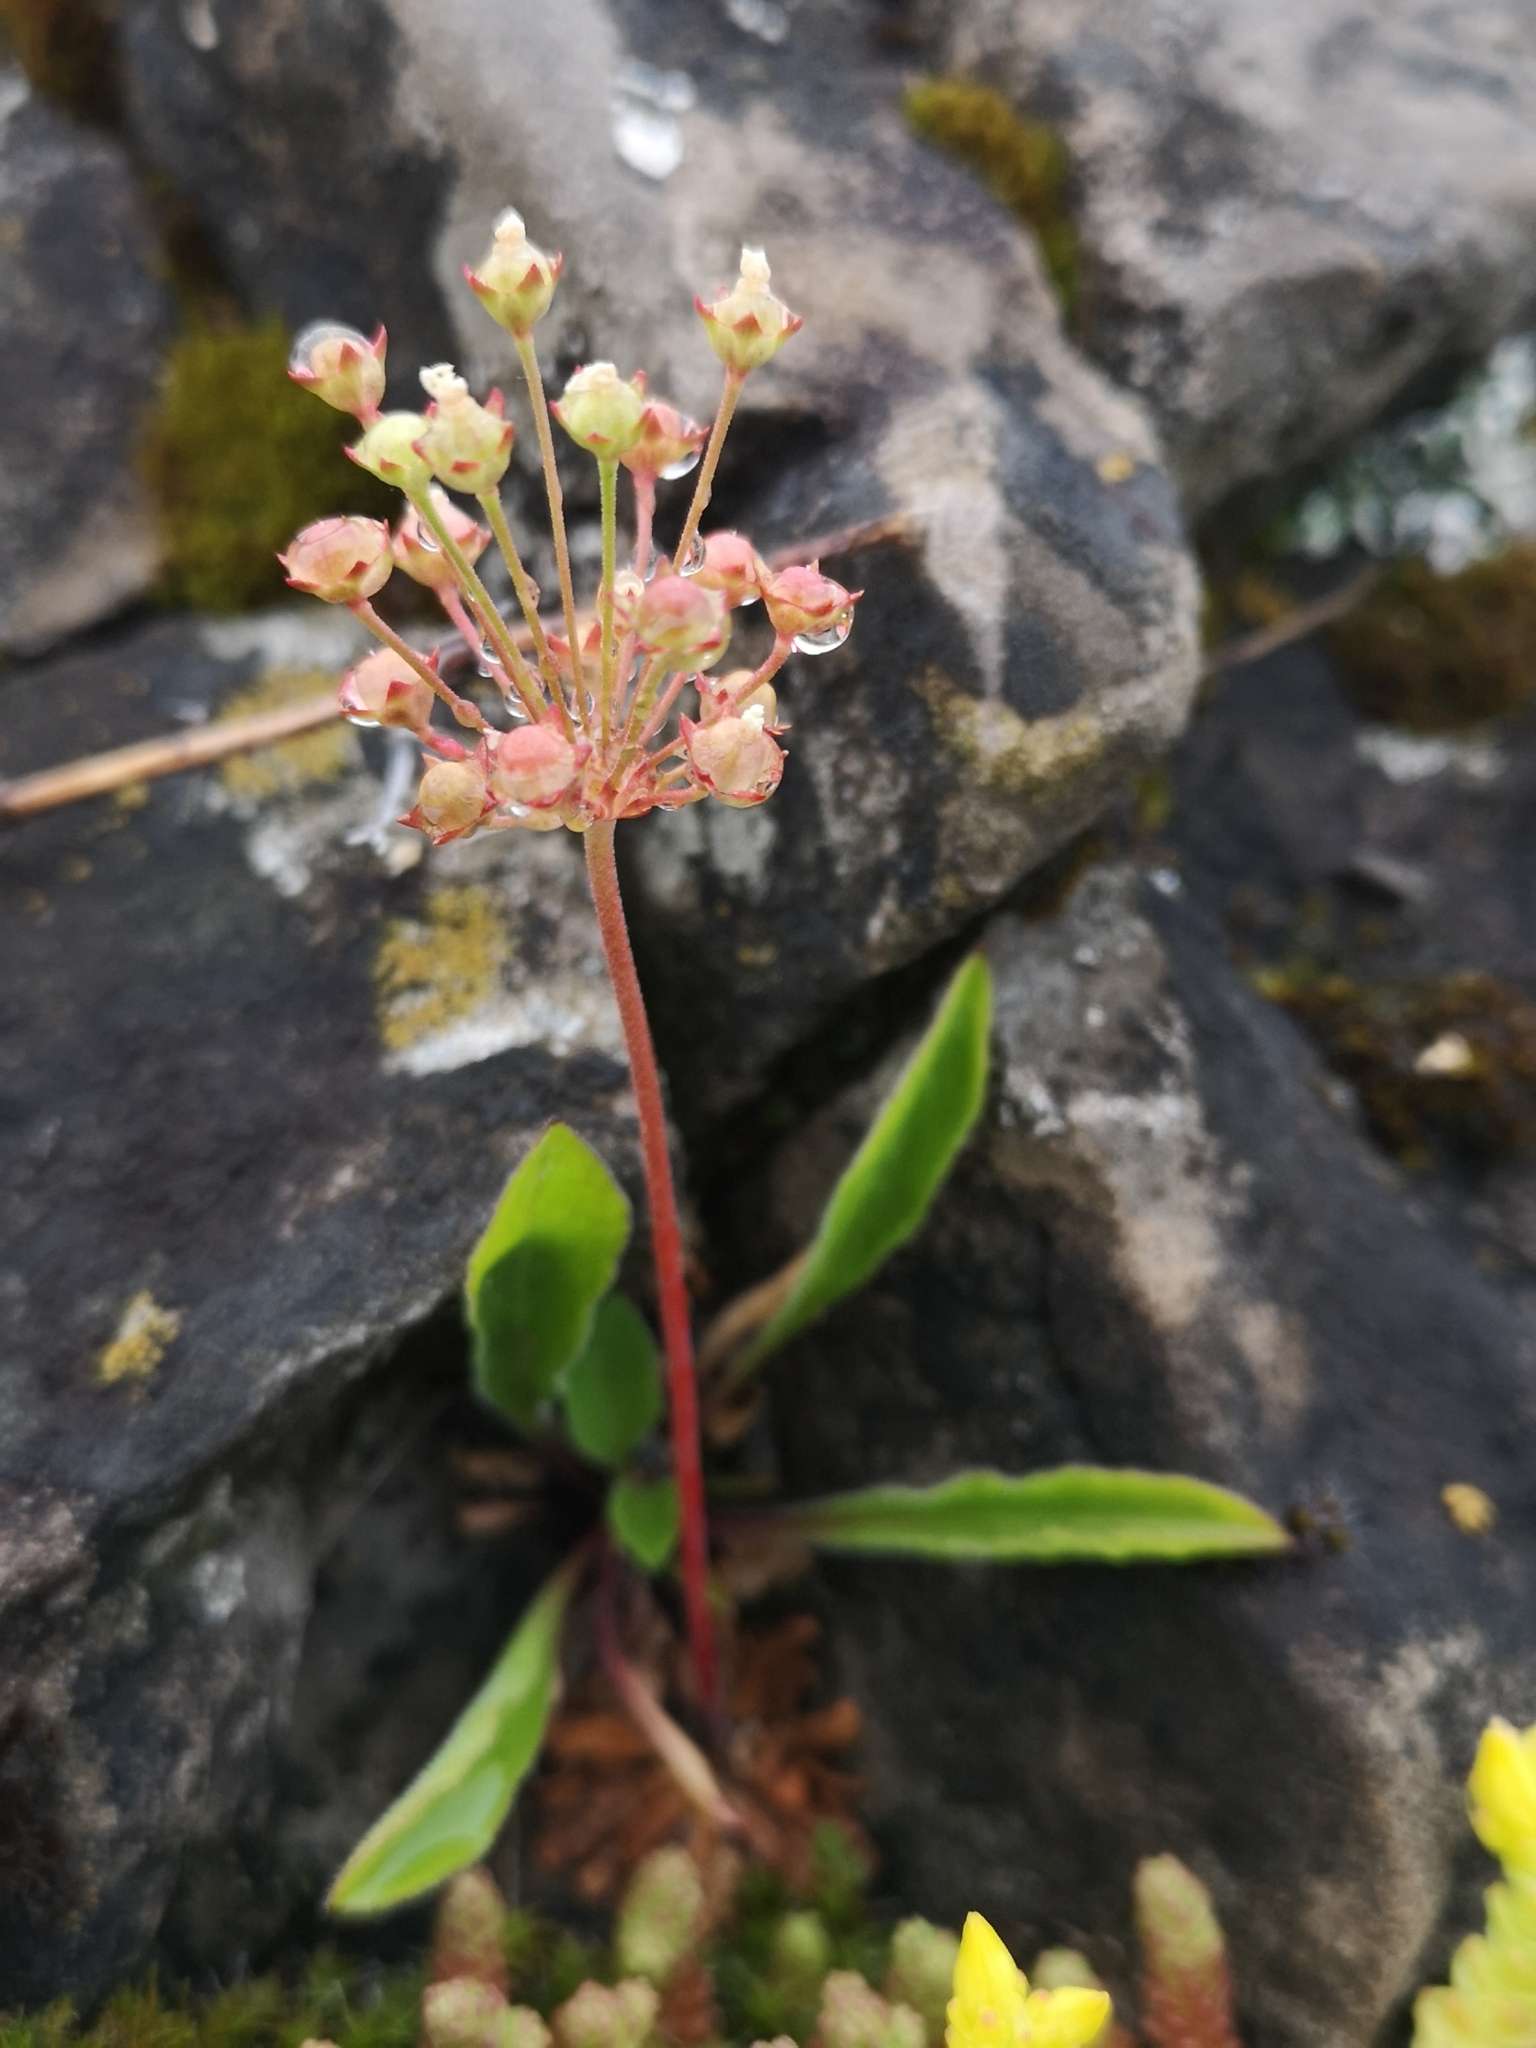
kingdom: Plantae
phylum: Tracheophyta
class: Magnoliopsida
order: Ericales
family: Primulaceae
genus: Androsace
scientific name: Androsace septentrionalis
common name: Hairy northern fairy-candelabra
